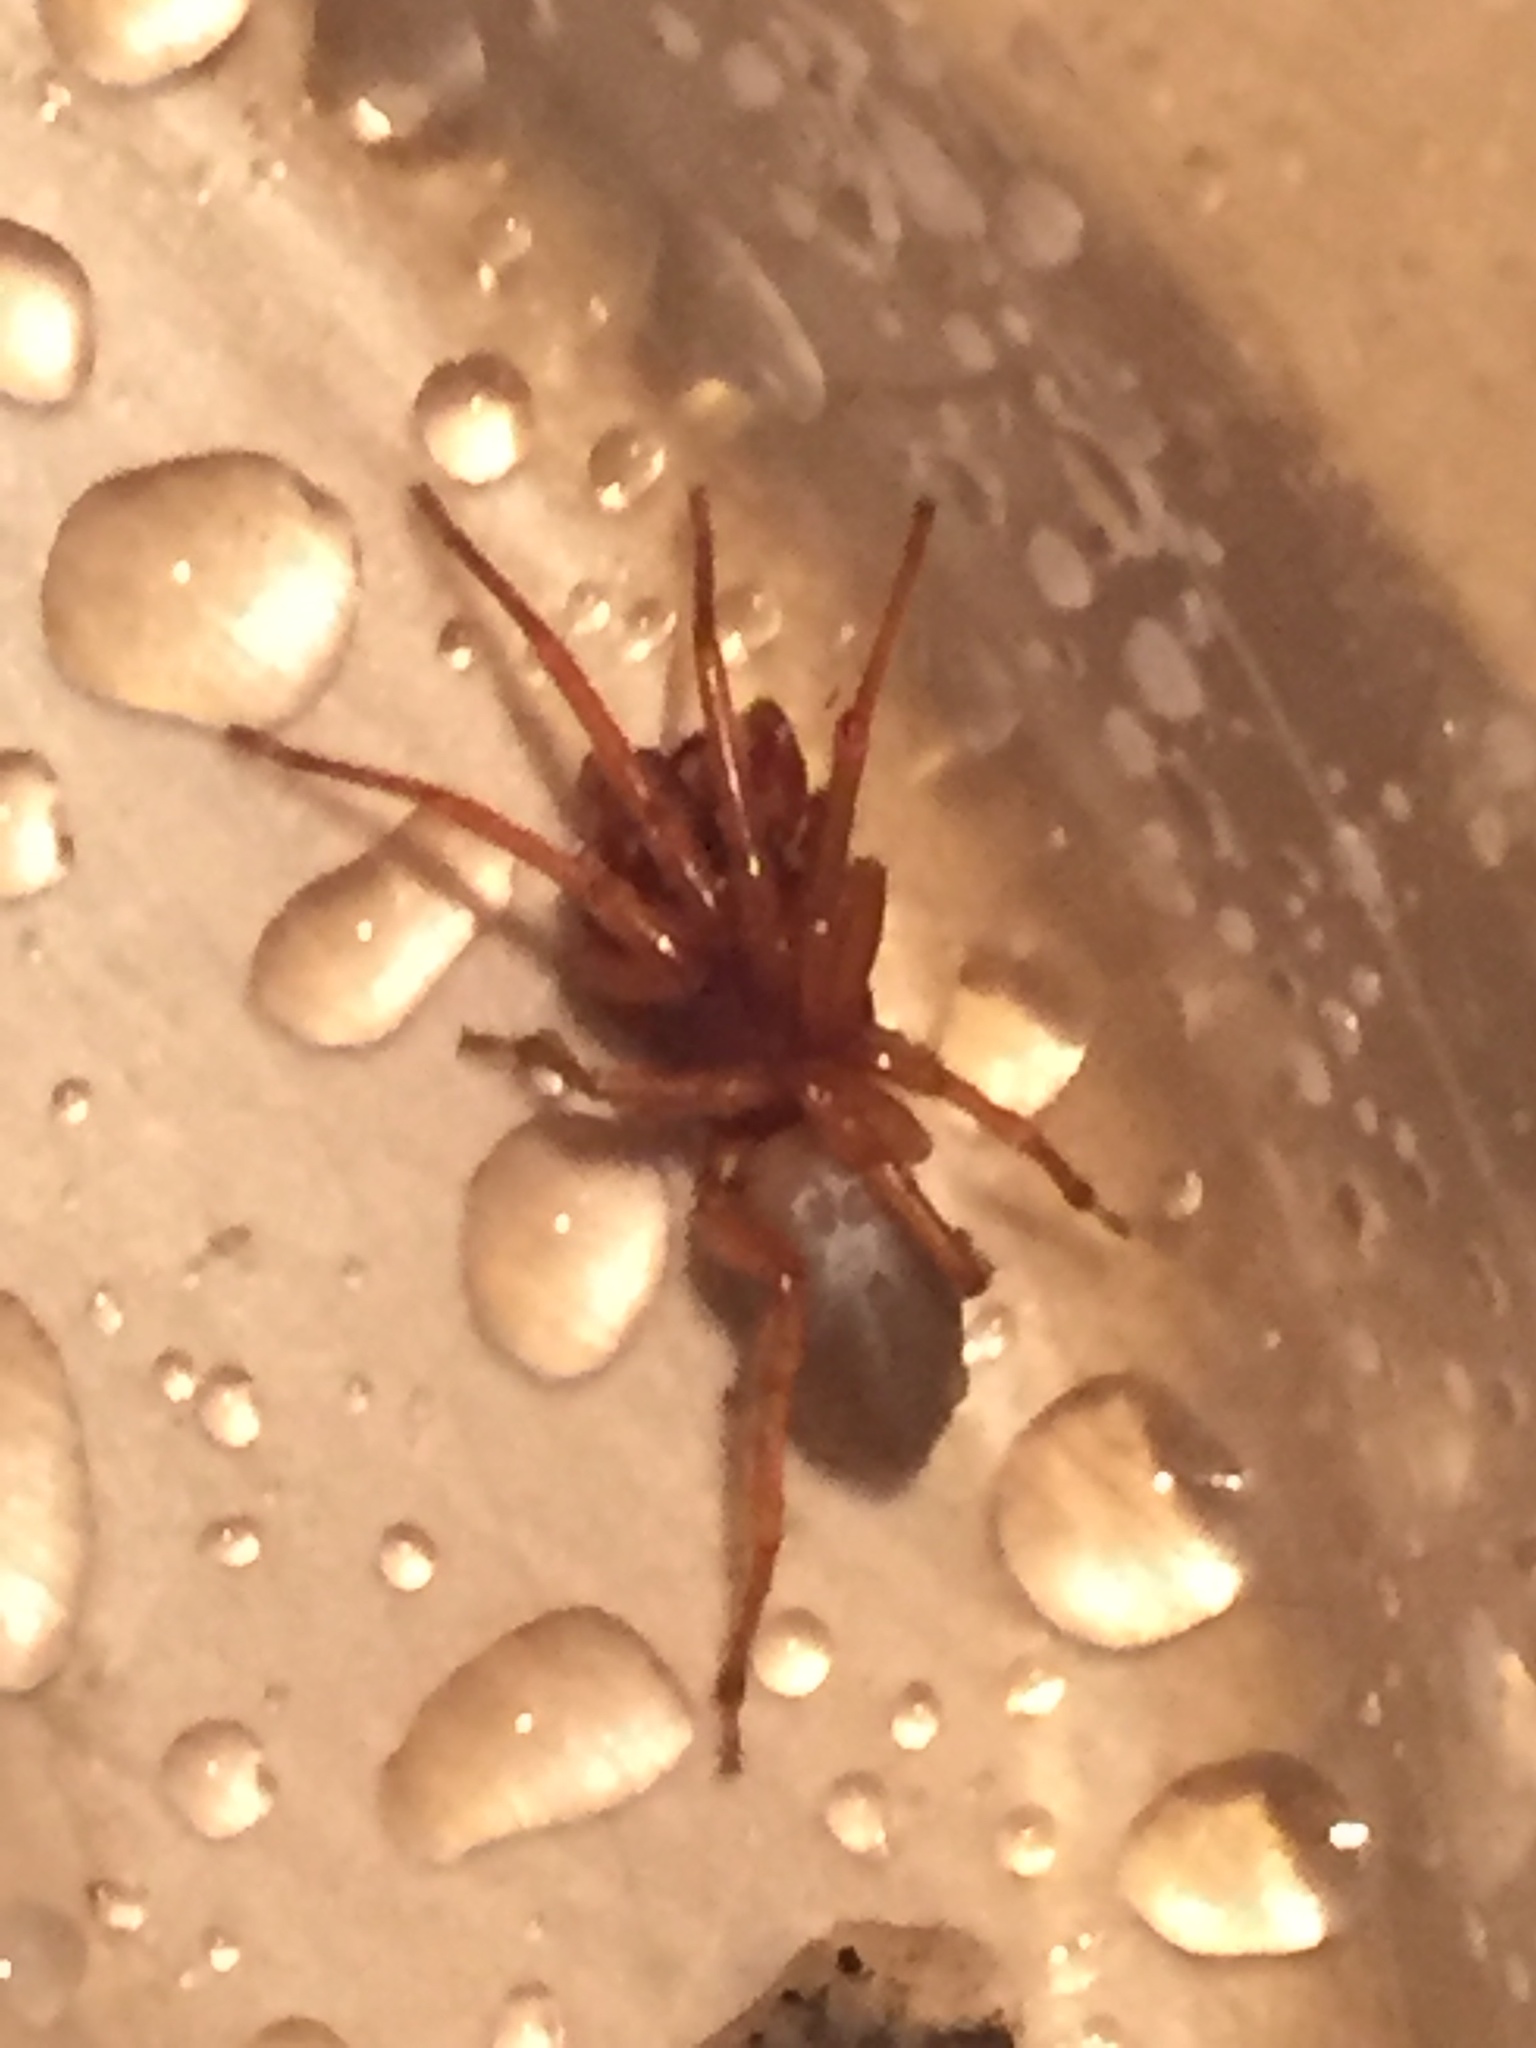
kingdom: Animalia
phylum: Arthropoda
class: Arachnida
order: Araneae
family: Dysderidae
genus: Dysdera
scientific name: Dysdera crocata
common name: Woodlouse spider
